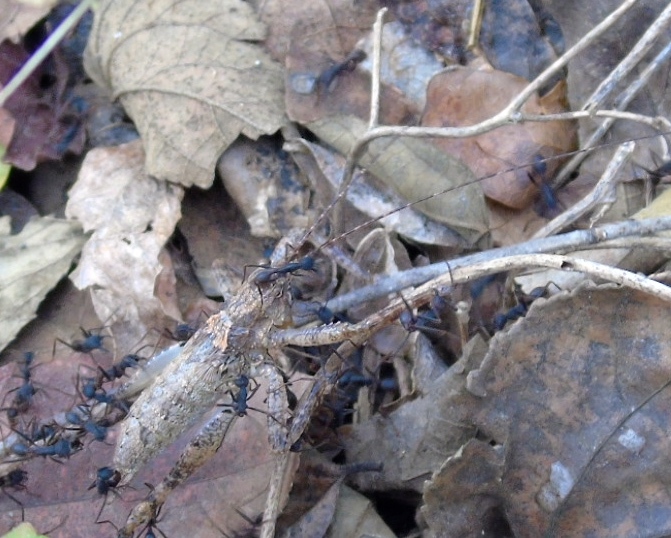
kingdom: Animalia
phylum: Arthropoda
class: Insecta
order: Hymenoptera
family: Formicidae
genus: Eciton
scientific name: Eciton burchellii
